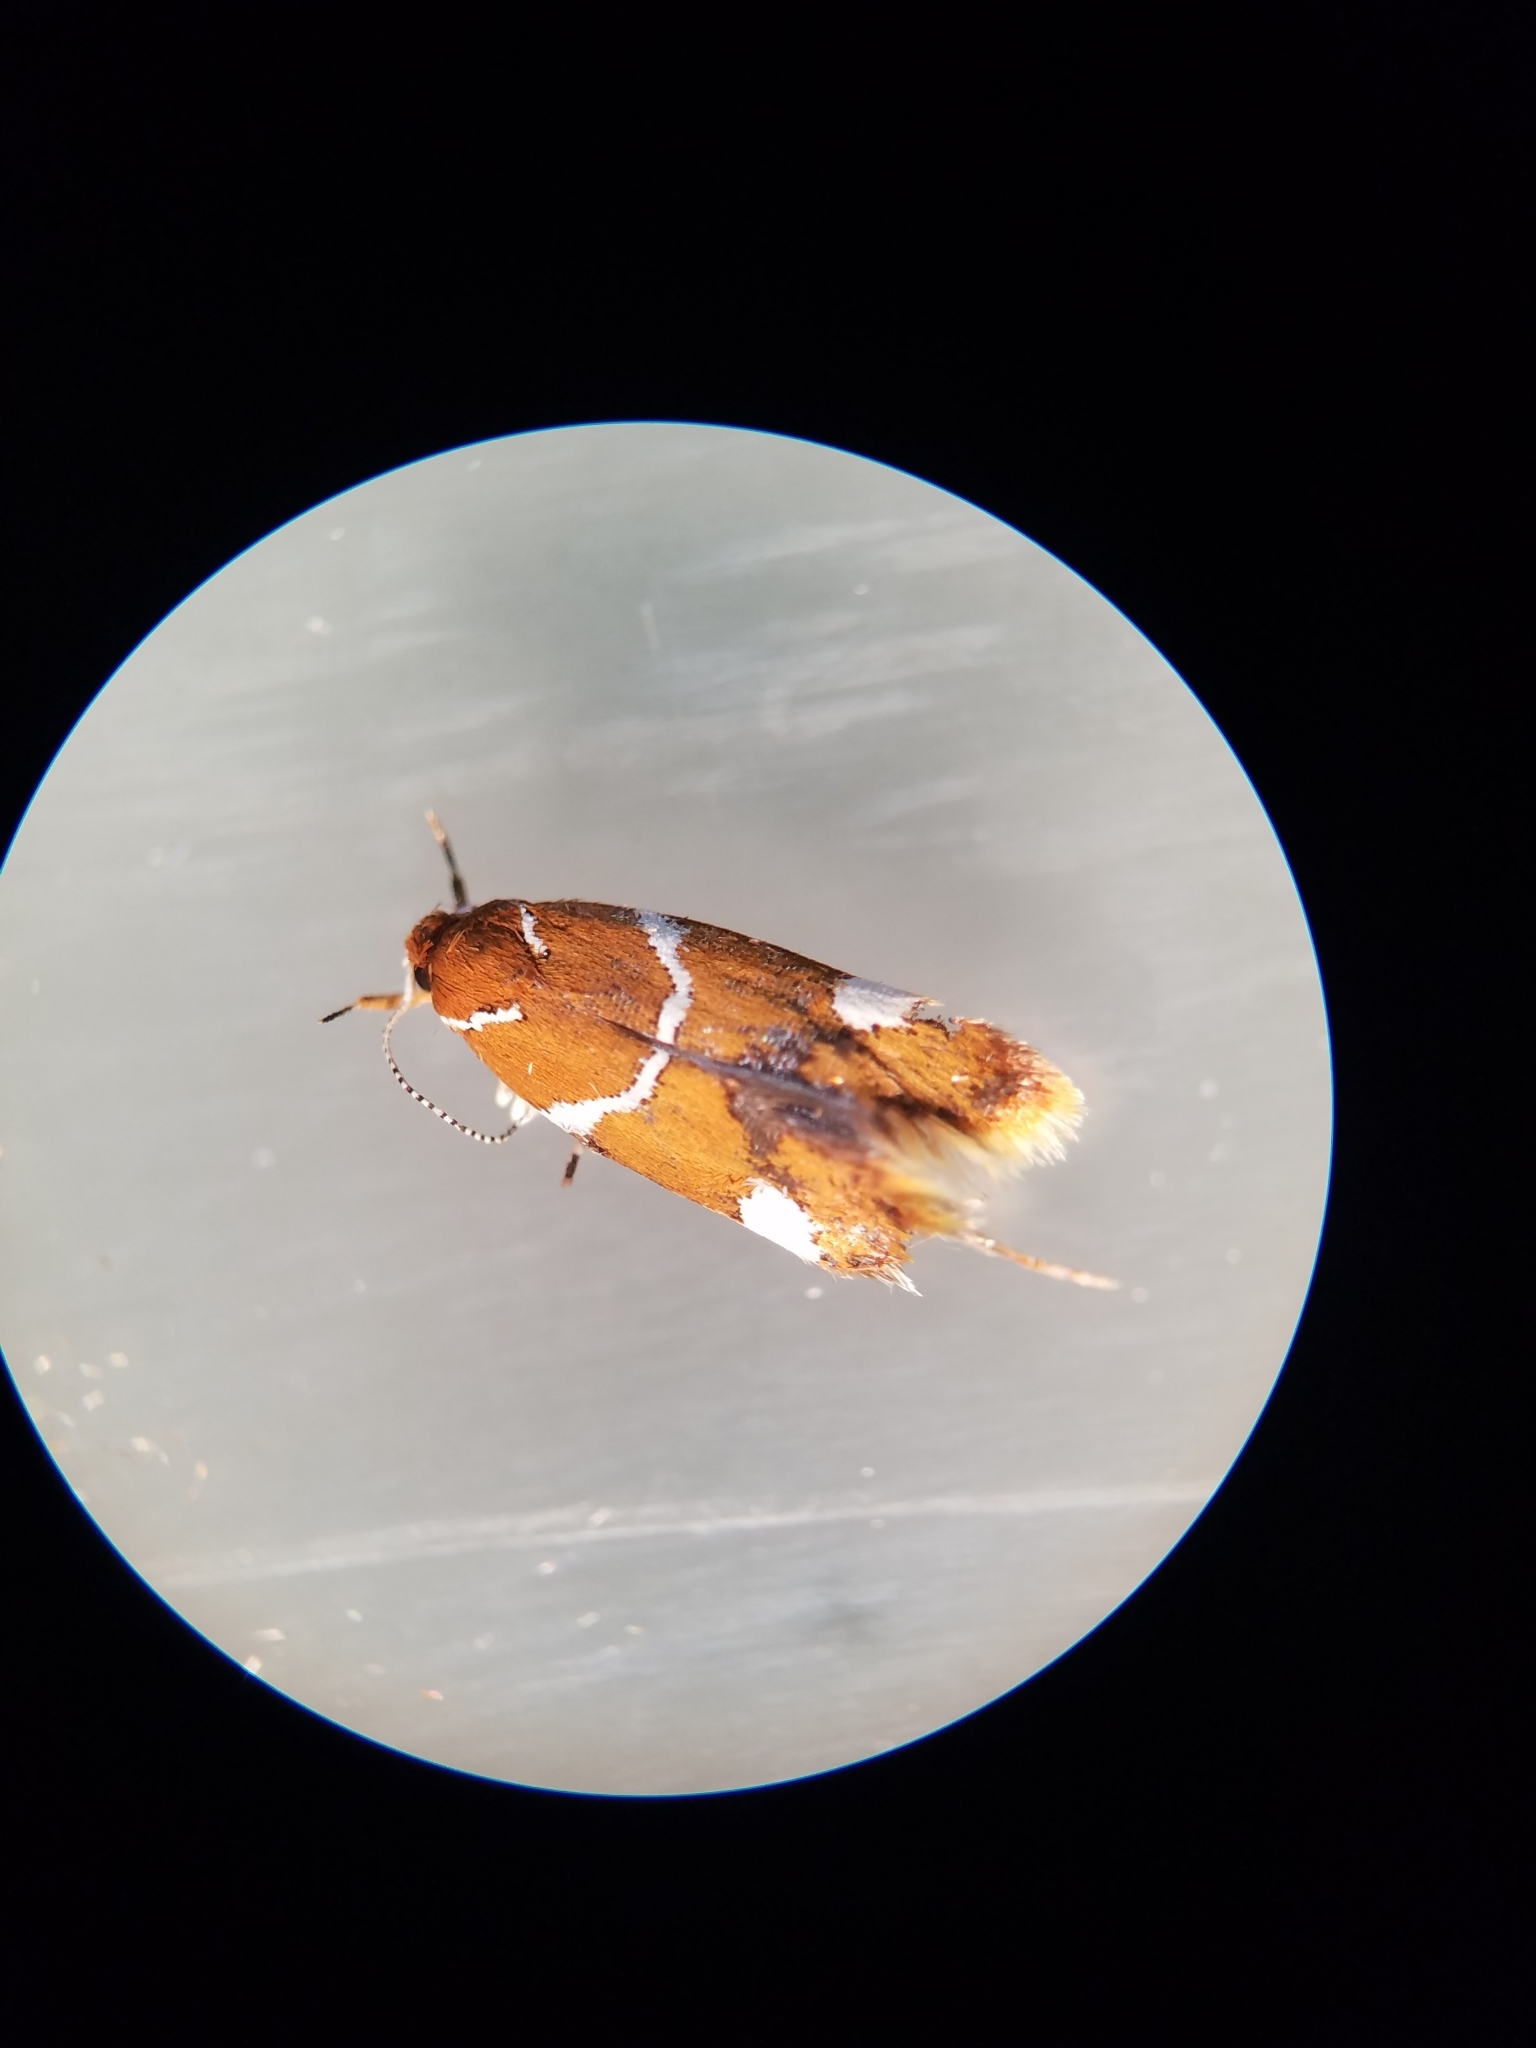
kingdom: Animalia
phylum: Arthropoda
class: Insecta
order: Lepidoptera
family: Oecophoridae
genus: Promalactis
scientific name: Promalactis suzukiella
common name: Moth
